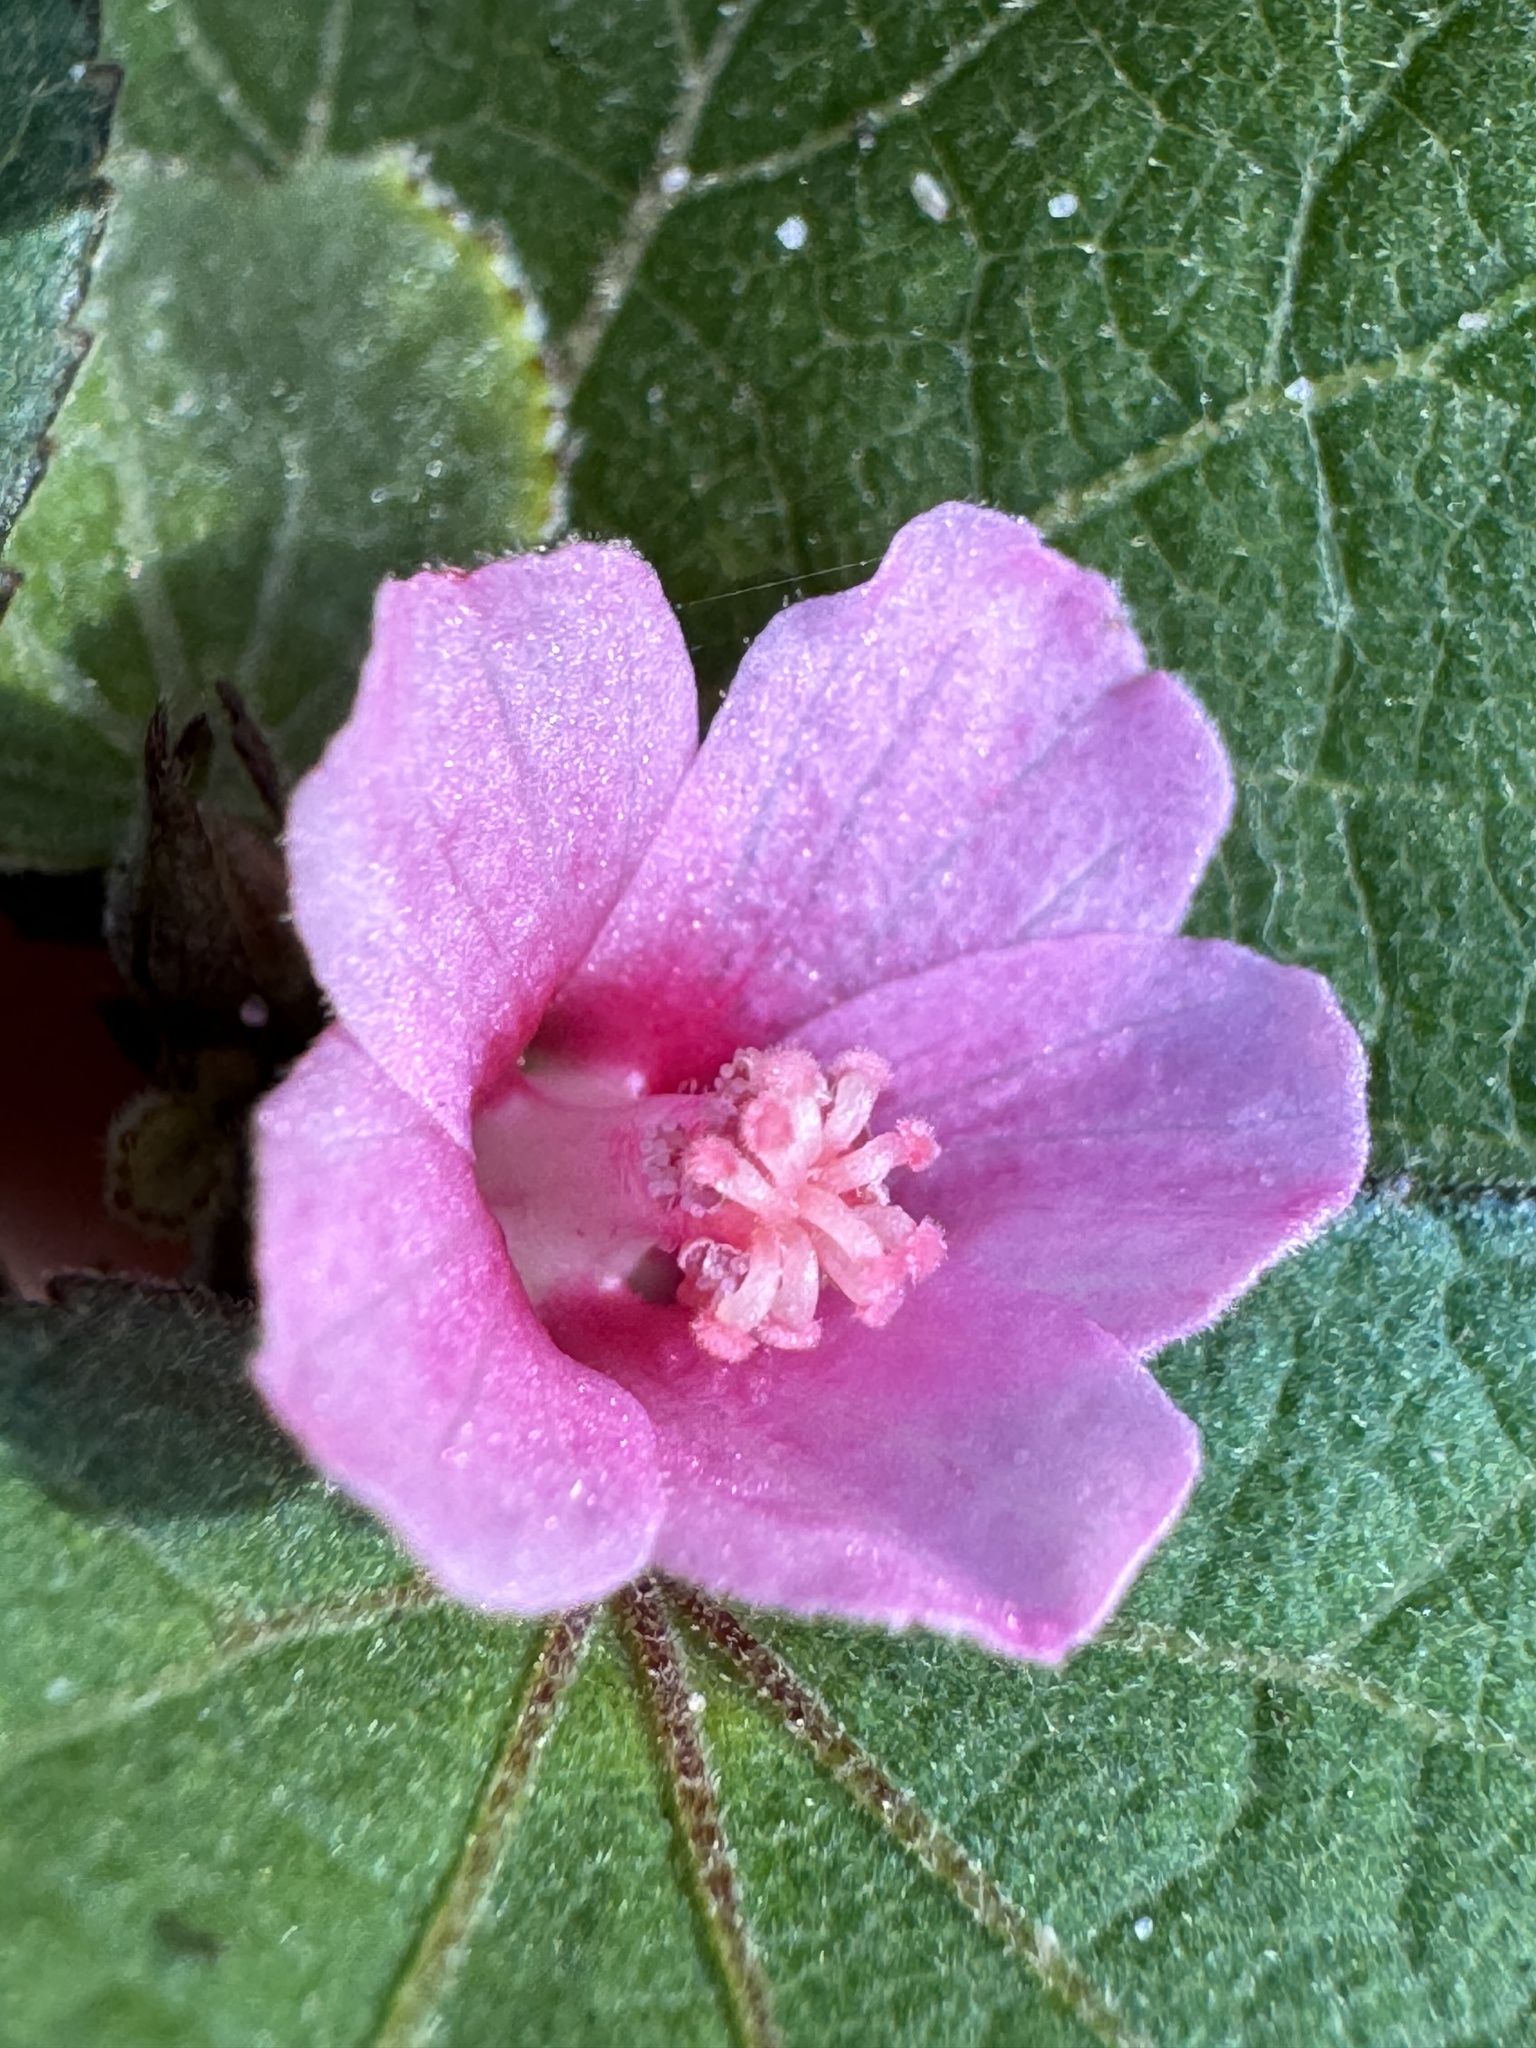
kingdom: Plantae
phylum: Tracheophyta
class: Magnoliopsida
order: Malvales
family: Malvaceae
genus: Urena
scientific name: Urena lobata
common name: Caesarweed
